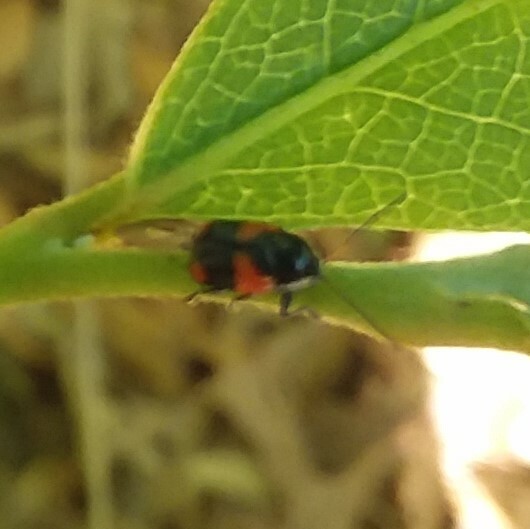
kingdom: Animalia
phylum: Arthropoda
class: Insecta
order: Coleoptera
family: Chrysomelidae
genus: Cryptocephalus
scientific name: Cryptocephalus binominis
